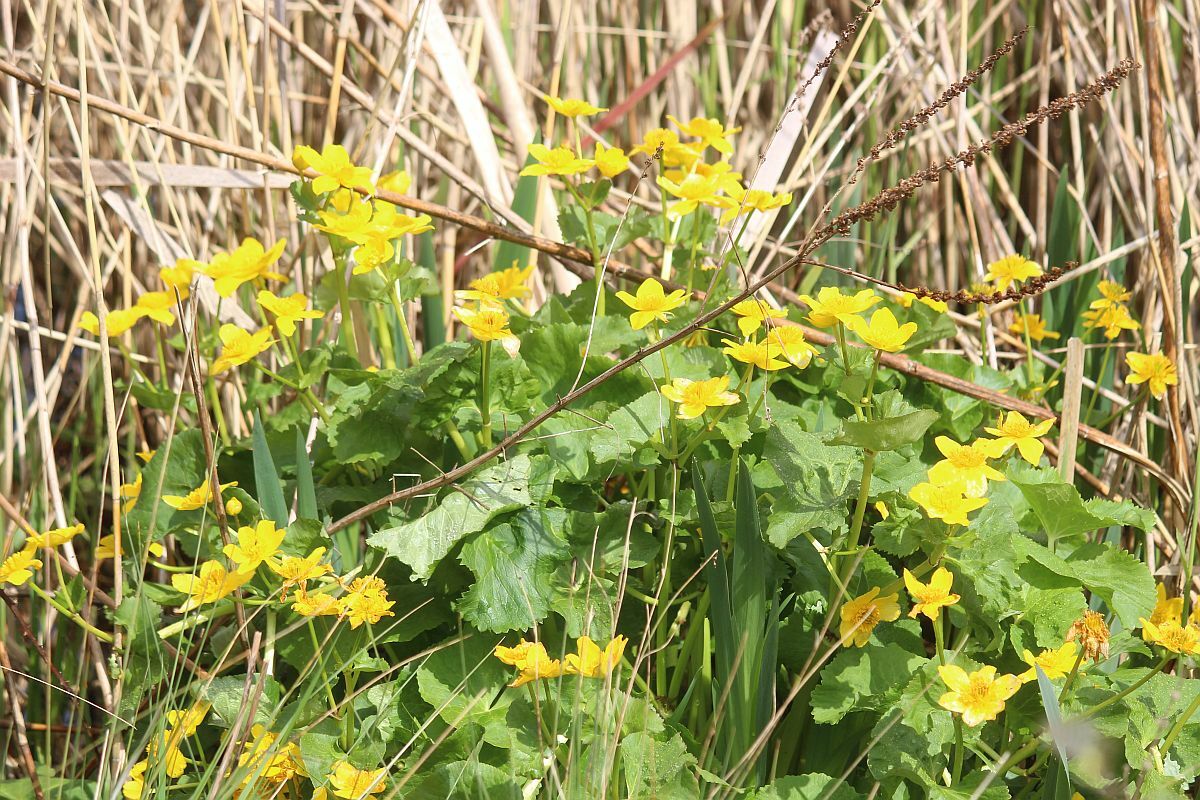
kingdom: Plantae
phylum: Tracheophyta
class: Magnoliopsida
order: Ranunculales
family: Ranunculaceae
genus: Caltha
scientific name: Caltha palustris
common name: Marsh marigold
